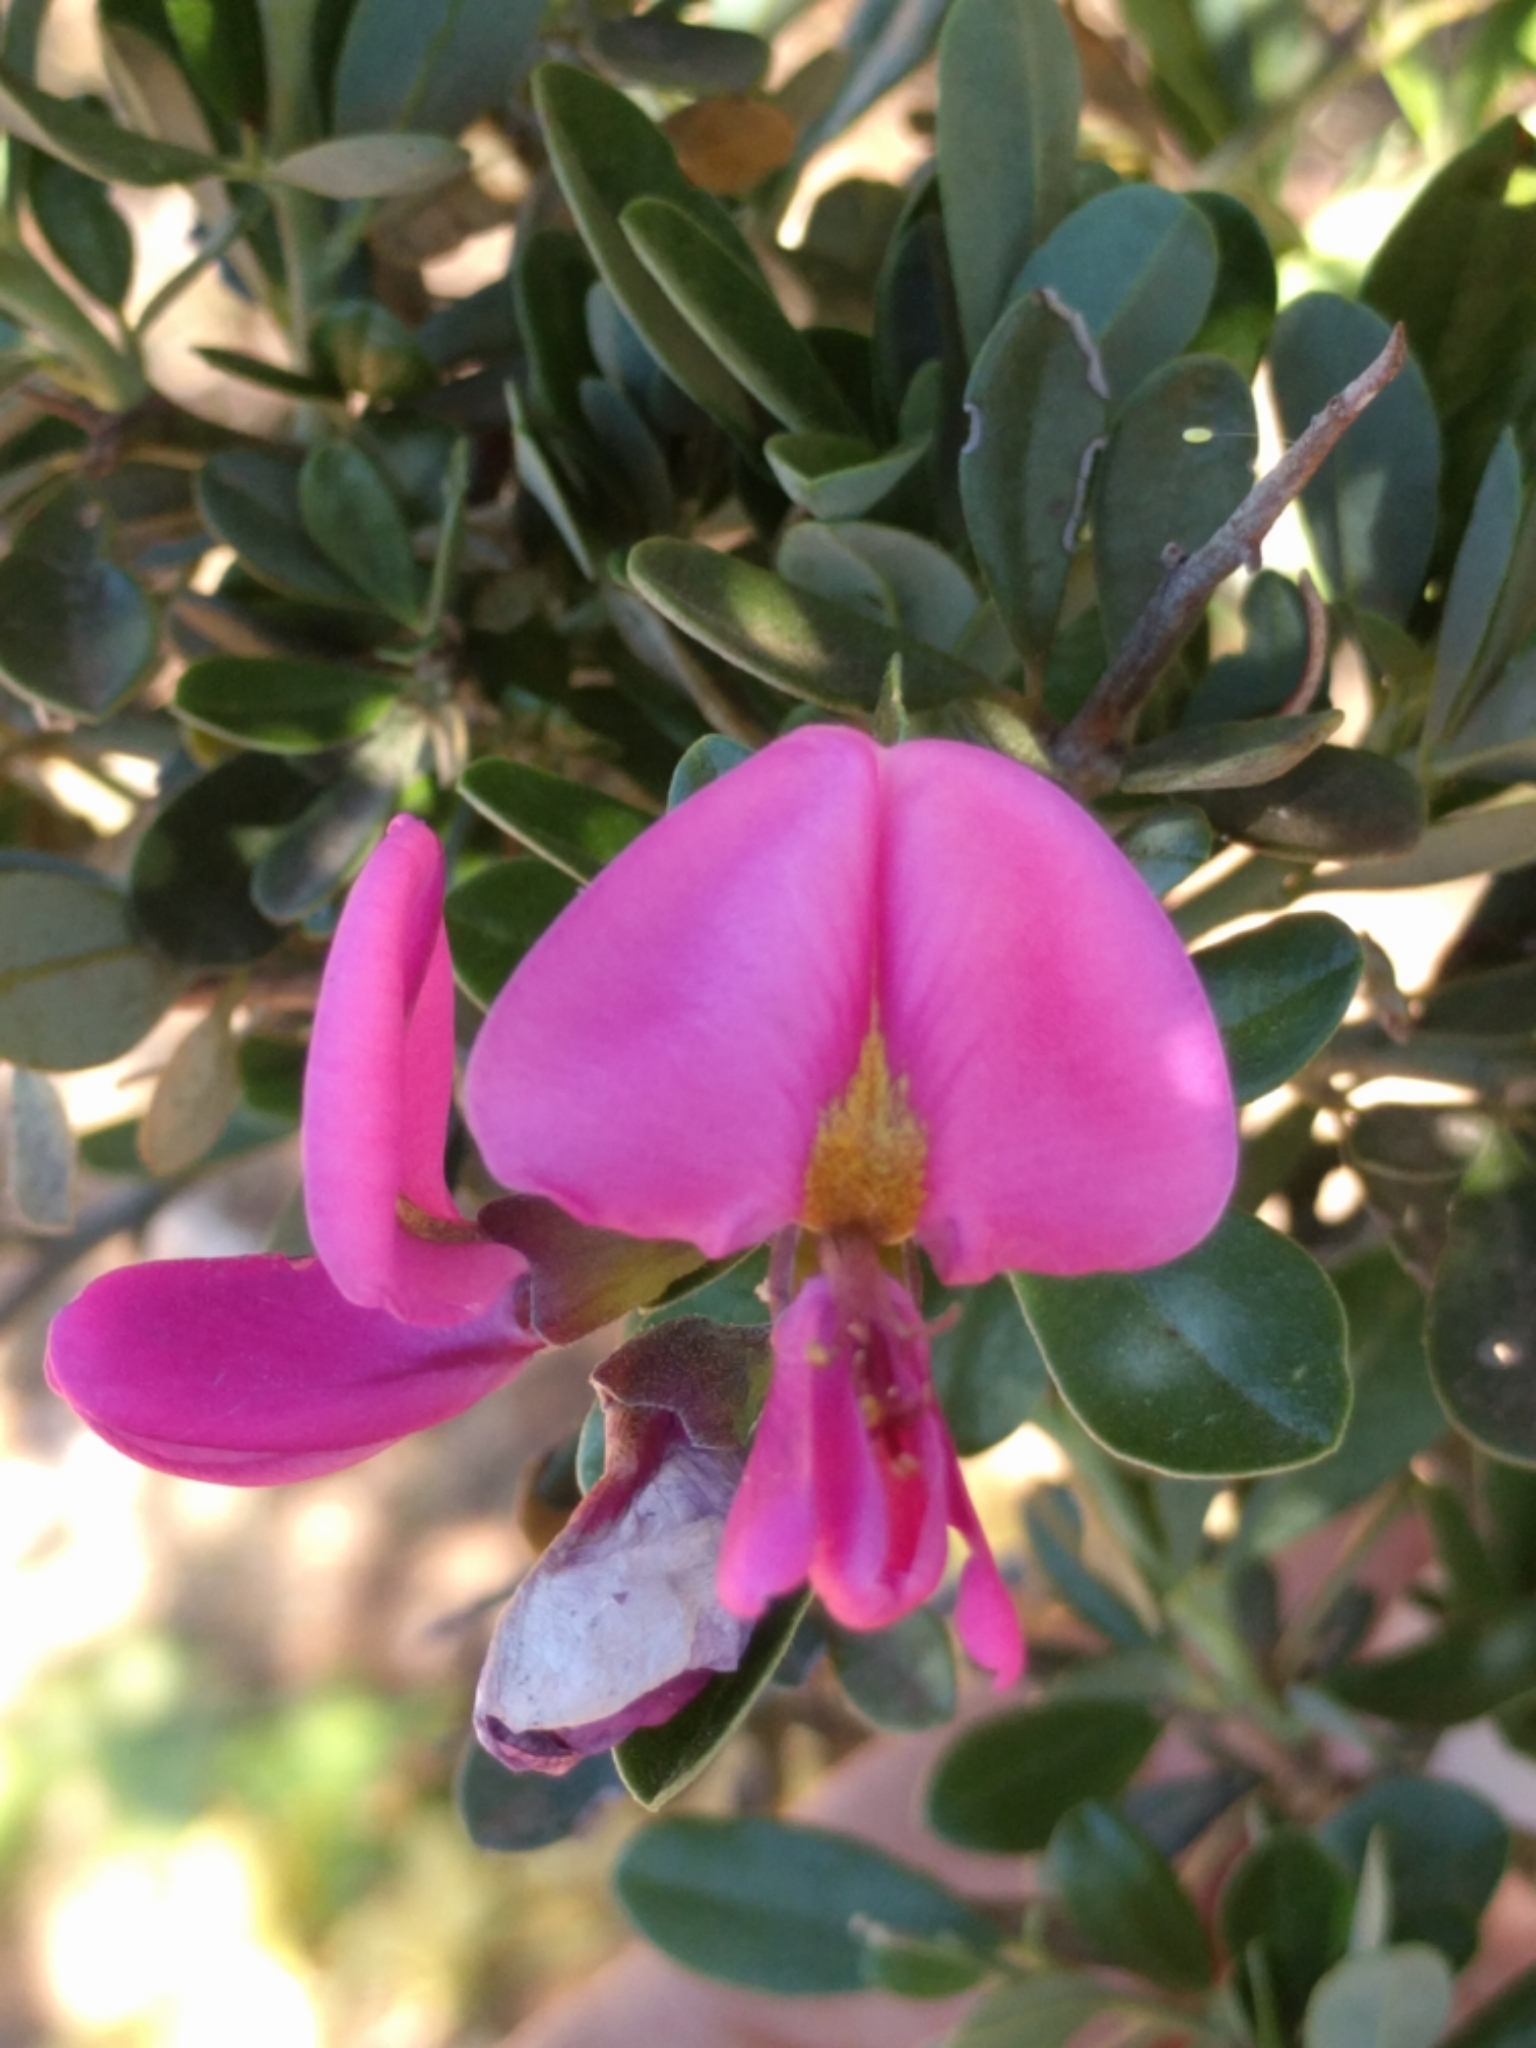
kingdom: Plantae
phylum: Tracheophyta
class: Magnoliopsida
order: Fabales
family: Fabaceae
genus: Pickeringia
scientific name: Pickeringia montana
